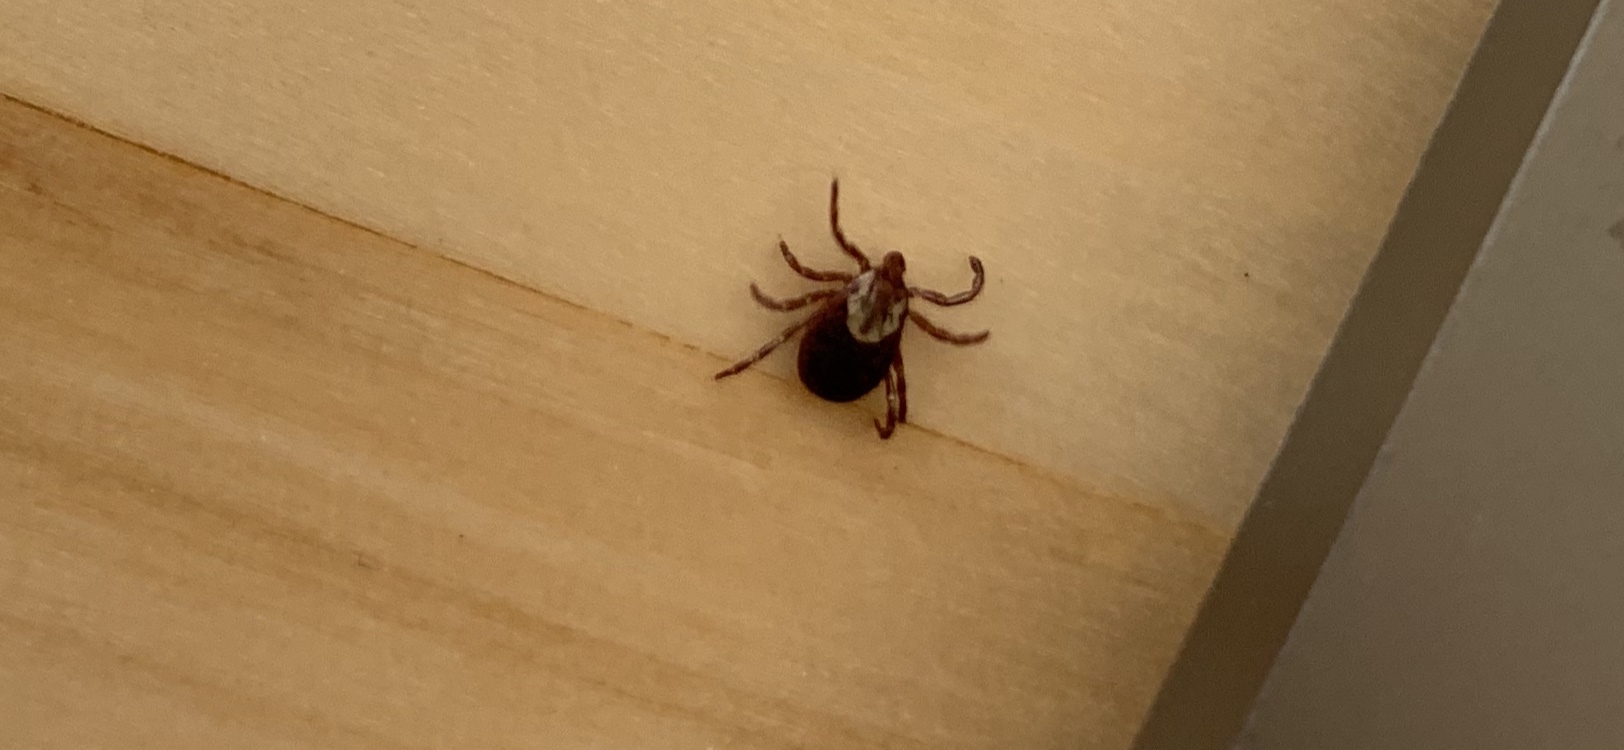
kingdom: Animalia
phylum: Arthropoda
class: Arachnida
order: Ixodida
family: Ixodidae
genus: Dermacentor
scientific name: Dermacentor variabilis
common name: American dog tick
